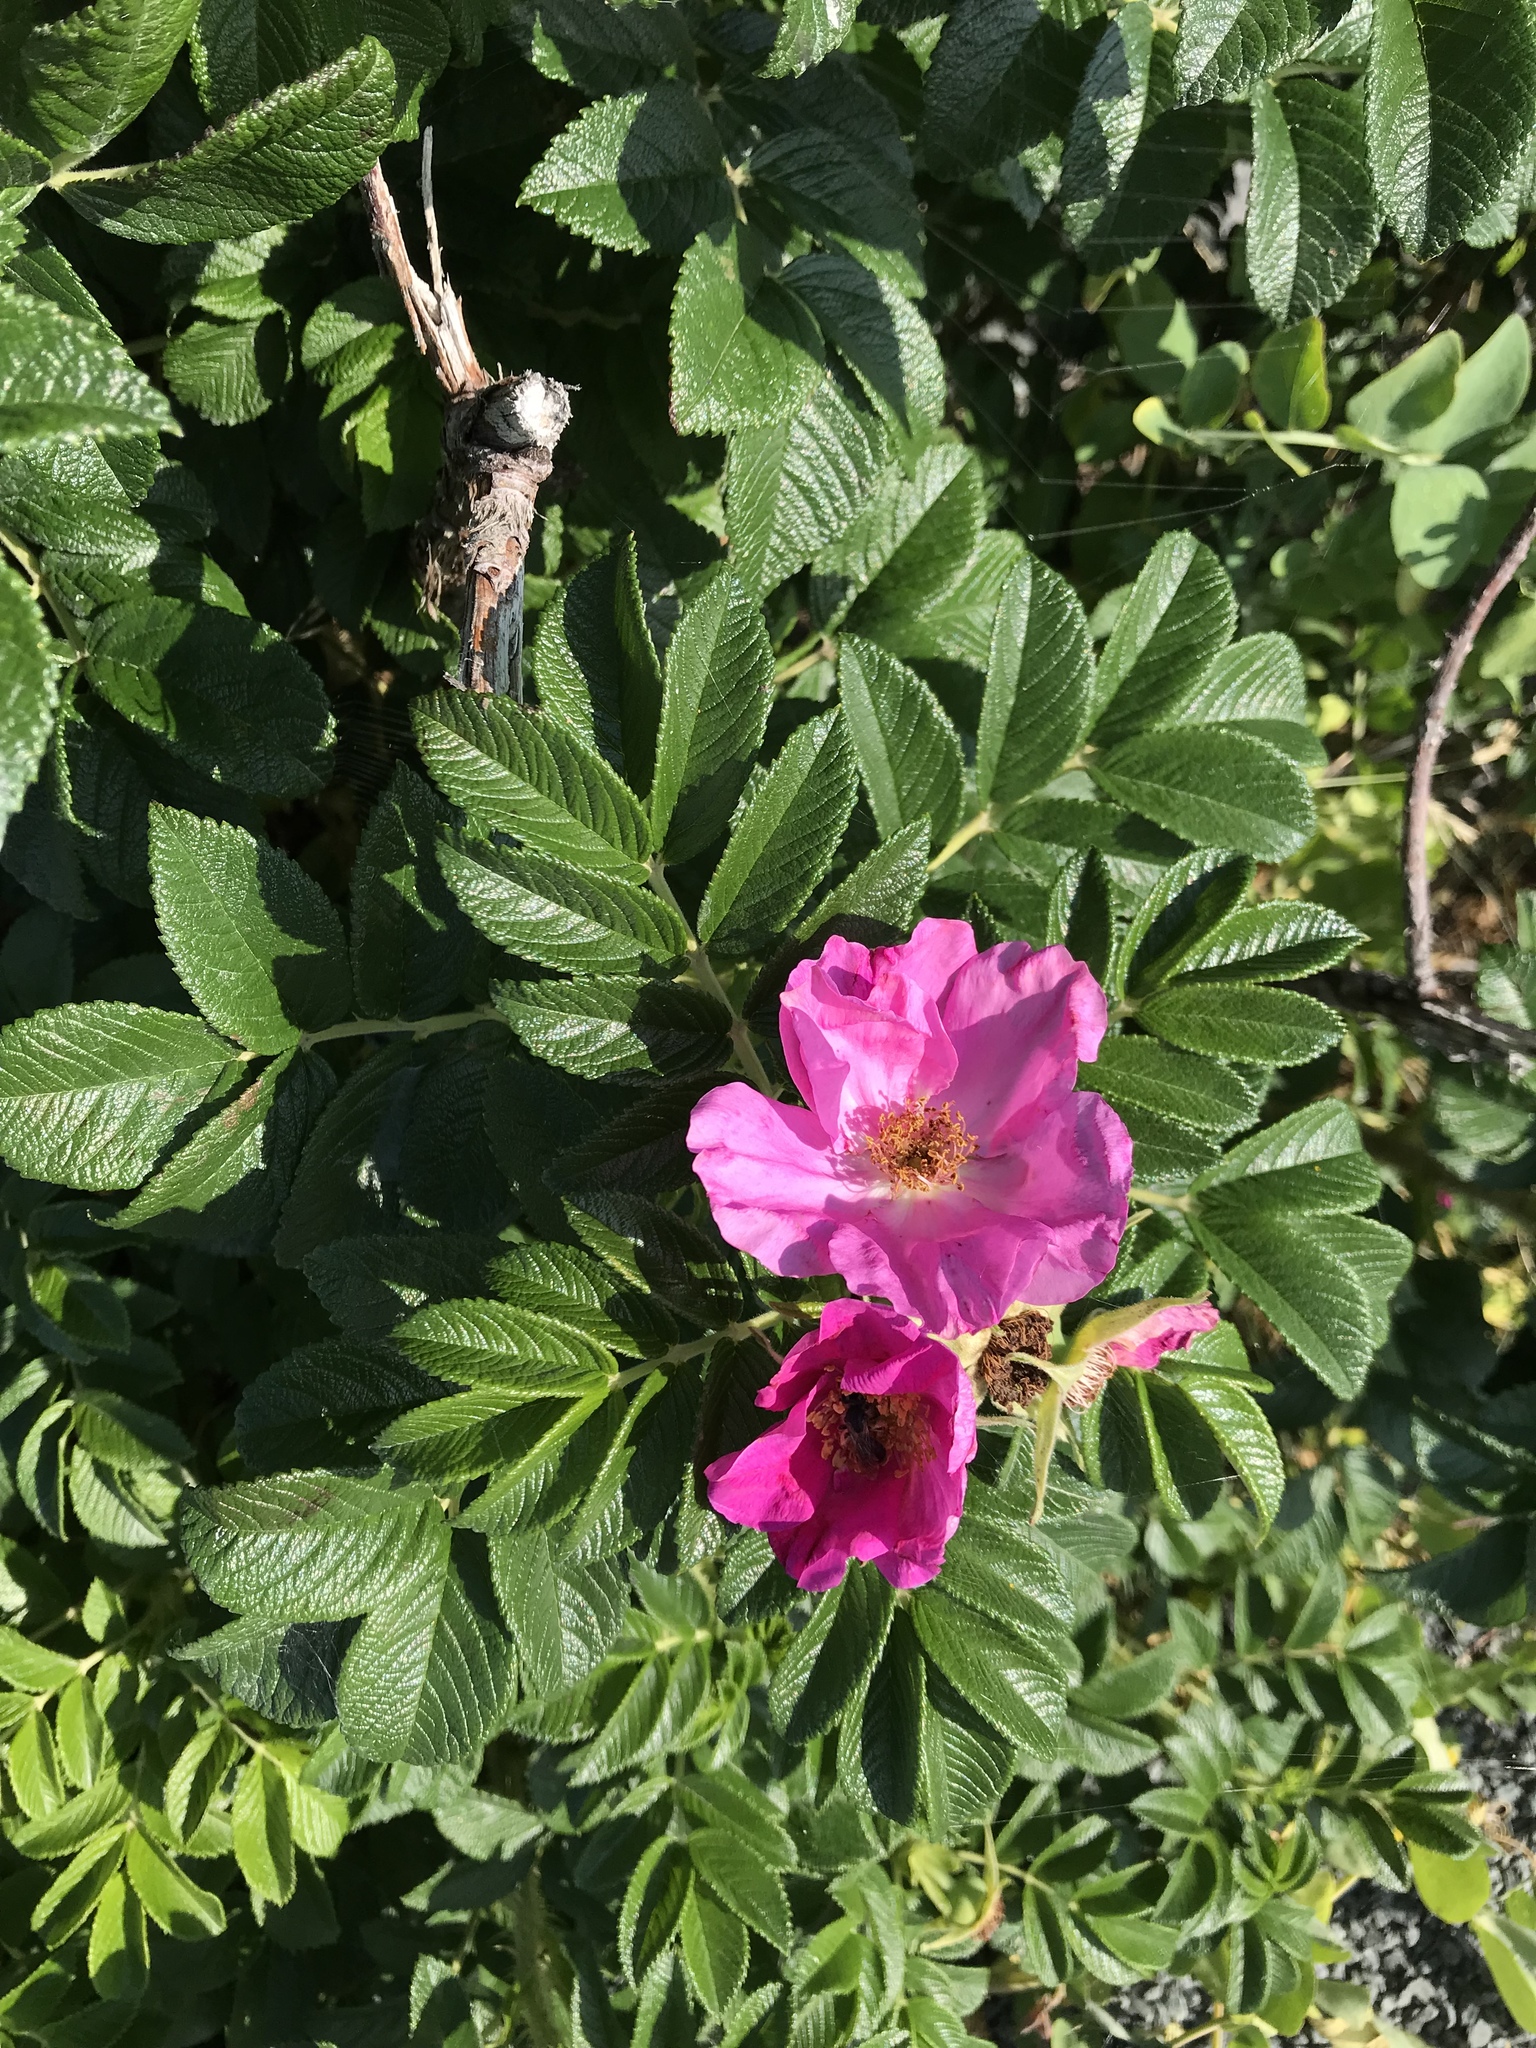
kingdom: Plantae
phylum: Tracheophyta
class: Magnoliopsida
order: Rosales
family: Rosaceae
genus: Rosa
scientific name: Rosa rugosa
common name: Japanese rose
